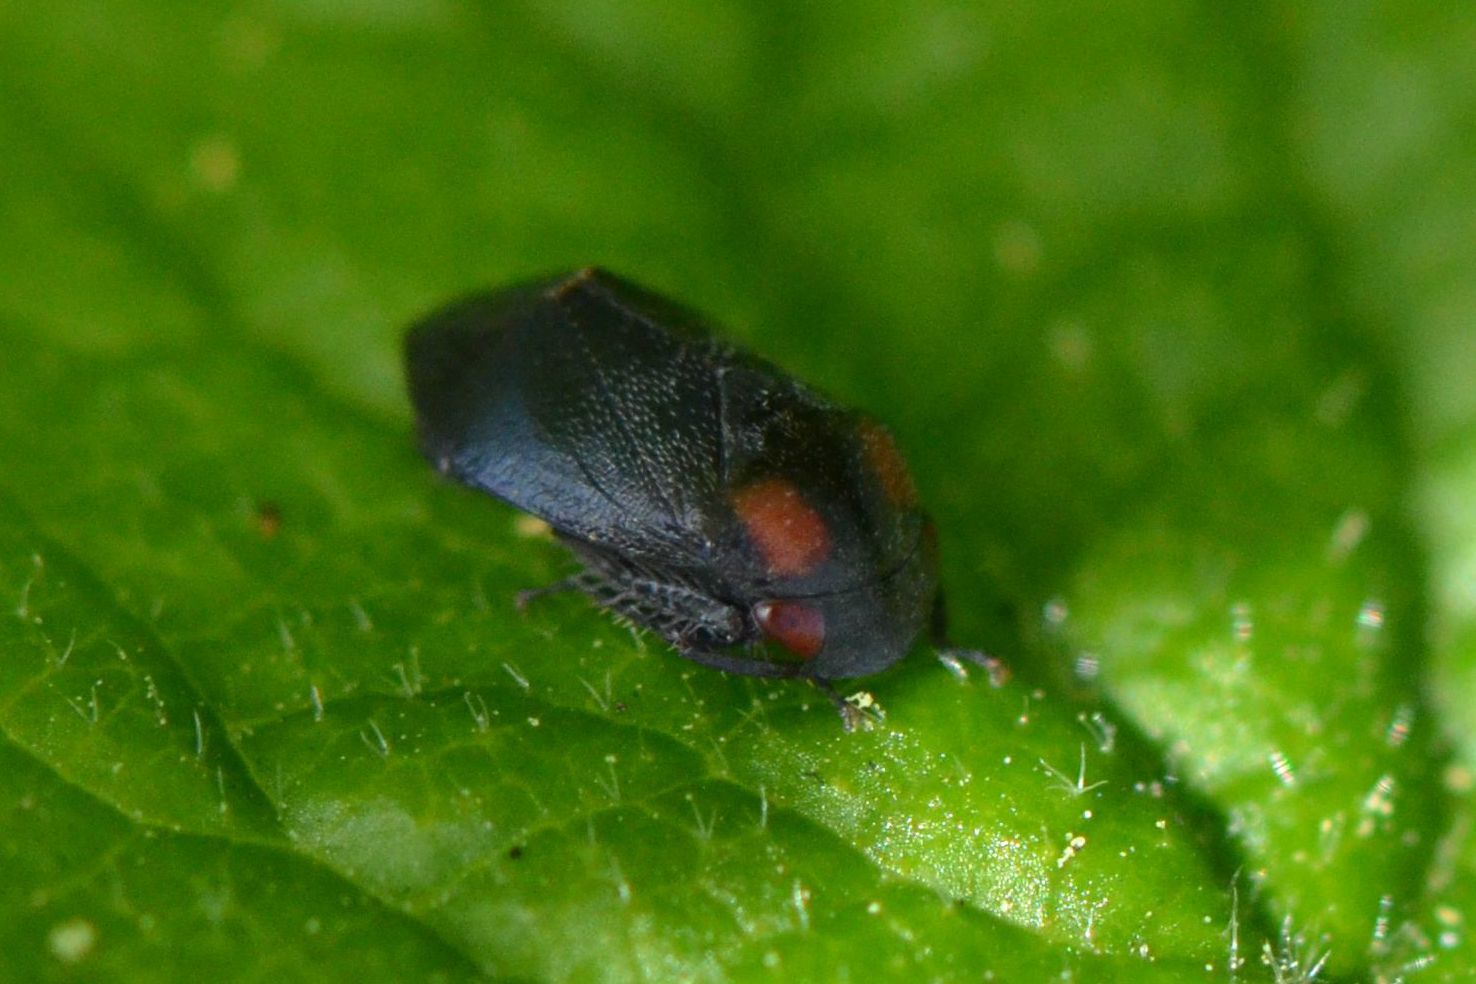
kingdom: Animalia
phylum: Arthropoda
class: Insecta
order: Hemiptera
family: Cicadellidae
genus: Penthimia
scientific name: Penthimia nigra
